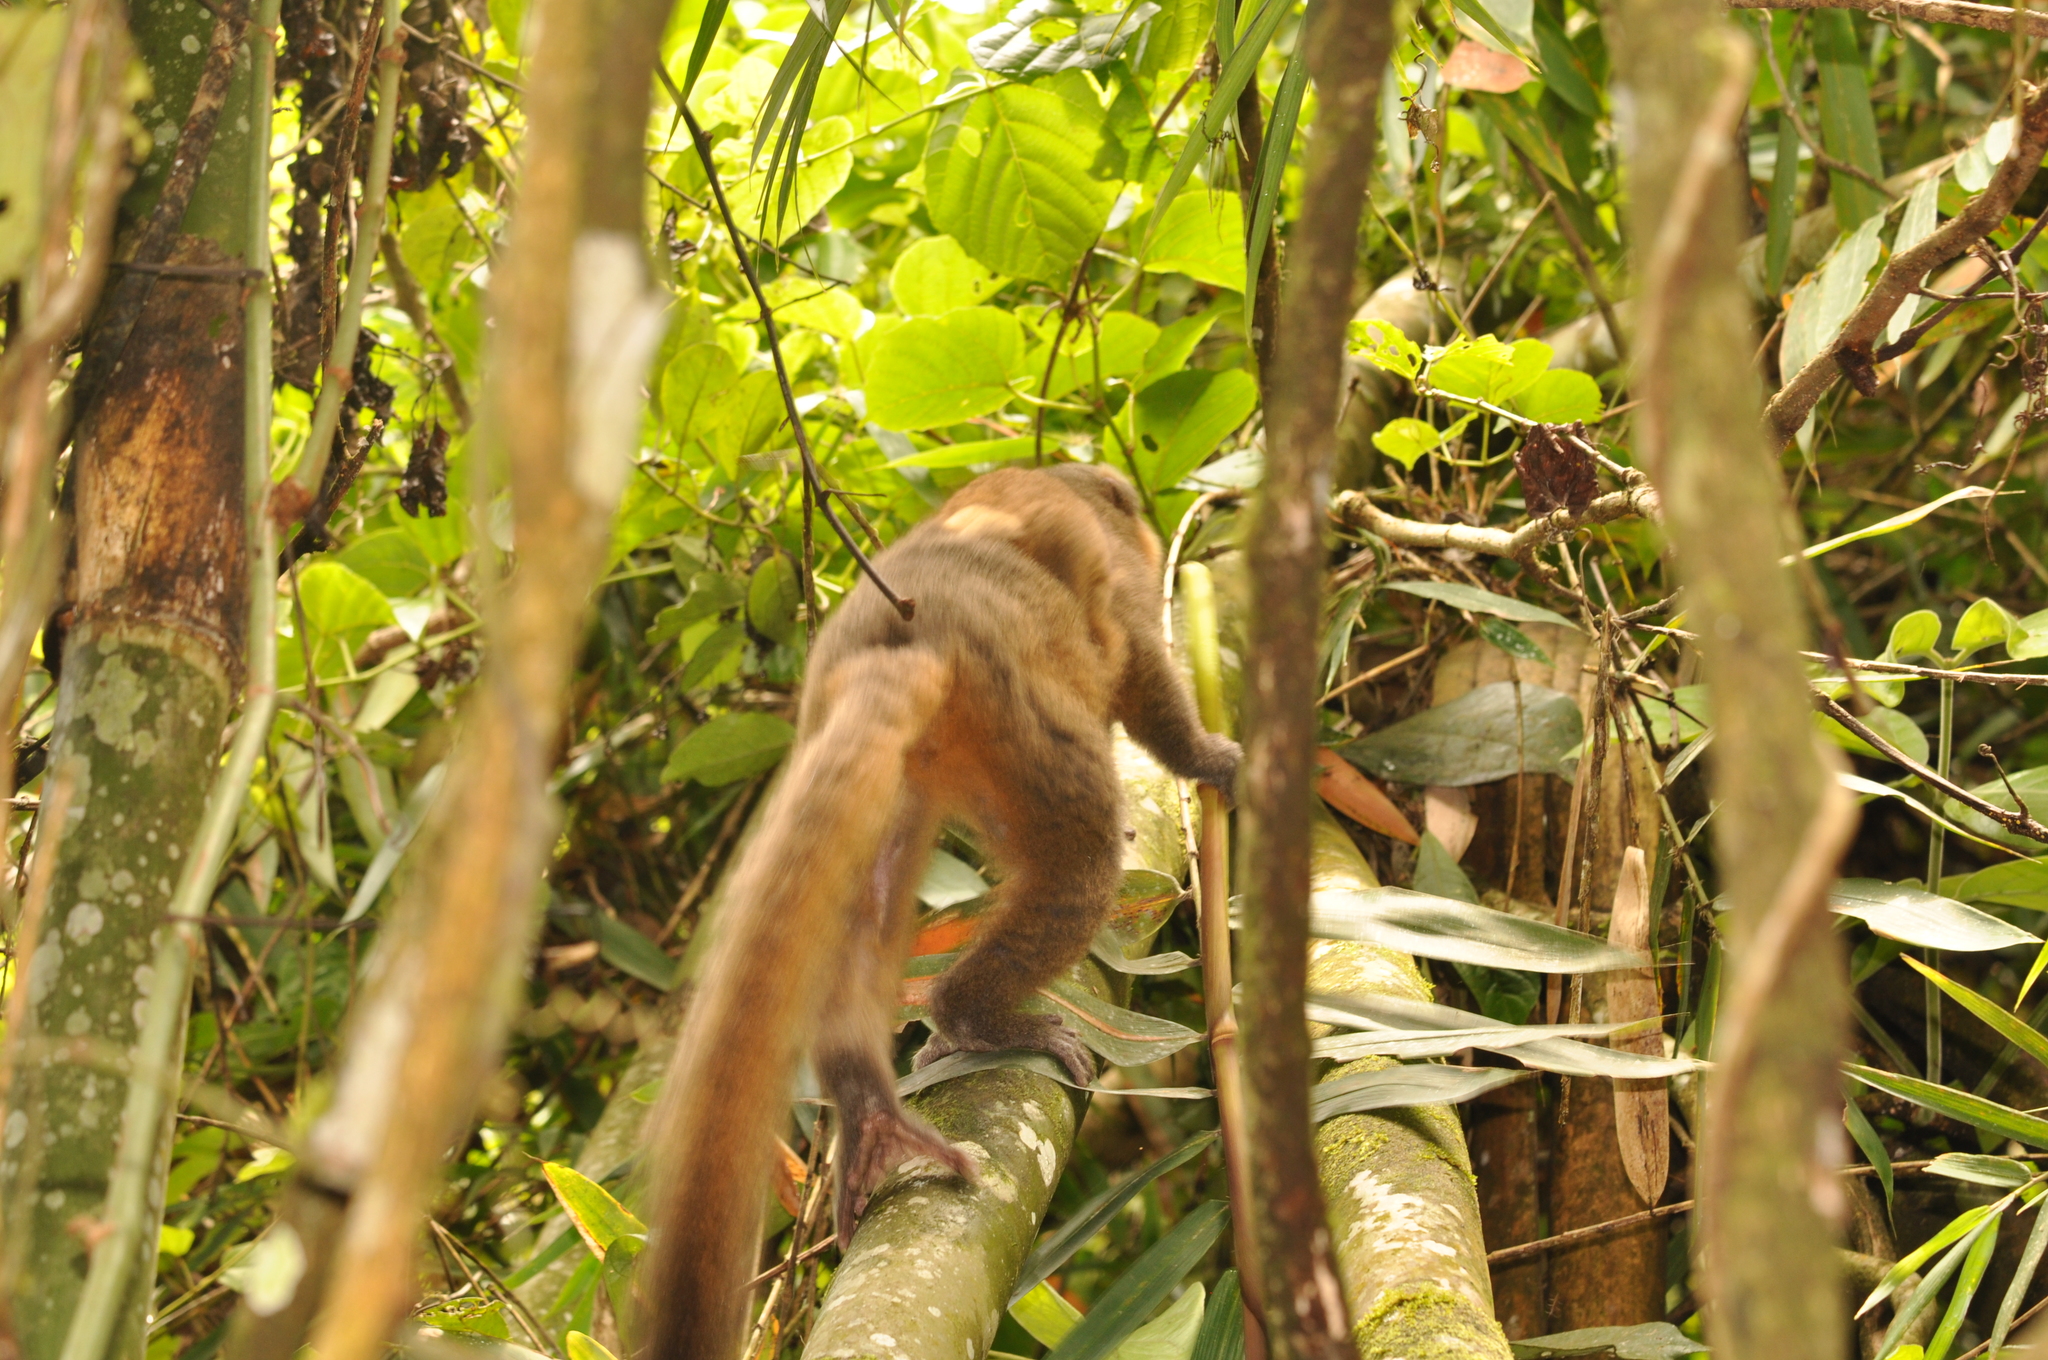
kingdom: Animalia
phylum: Chordata
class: Mammalia
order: Primates
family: Lemuridae
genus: Hapalemur
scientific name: Hapalemur aureus
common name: Golden bamboo lemur
